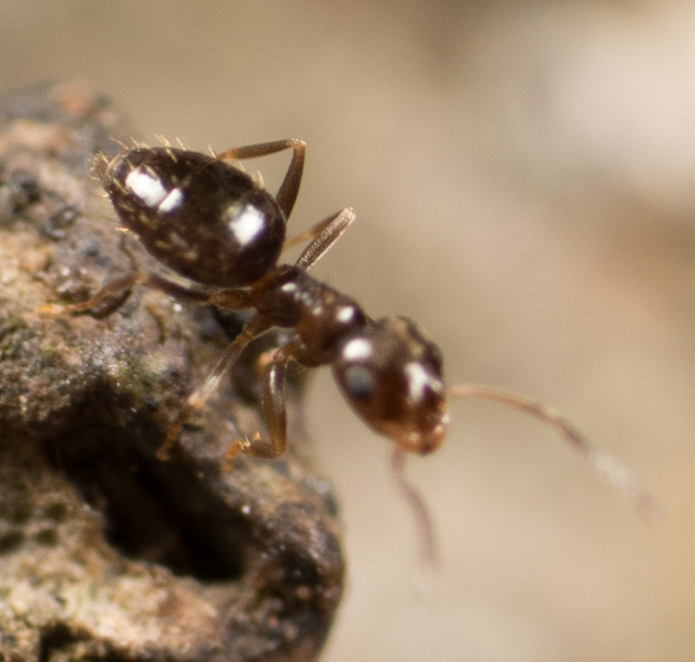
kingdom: Animalia
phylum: Arthropoda
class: Insecta
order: Hymenoptera
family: Formicidae
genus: Brachymyrmex
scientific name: Brachymyrmex patagonicus
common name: Dark rover ant
